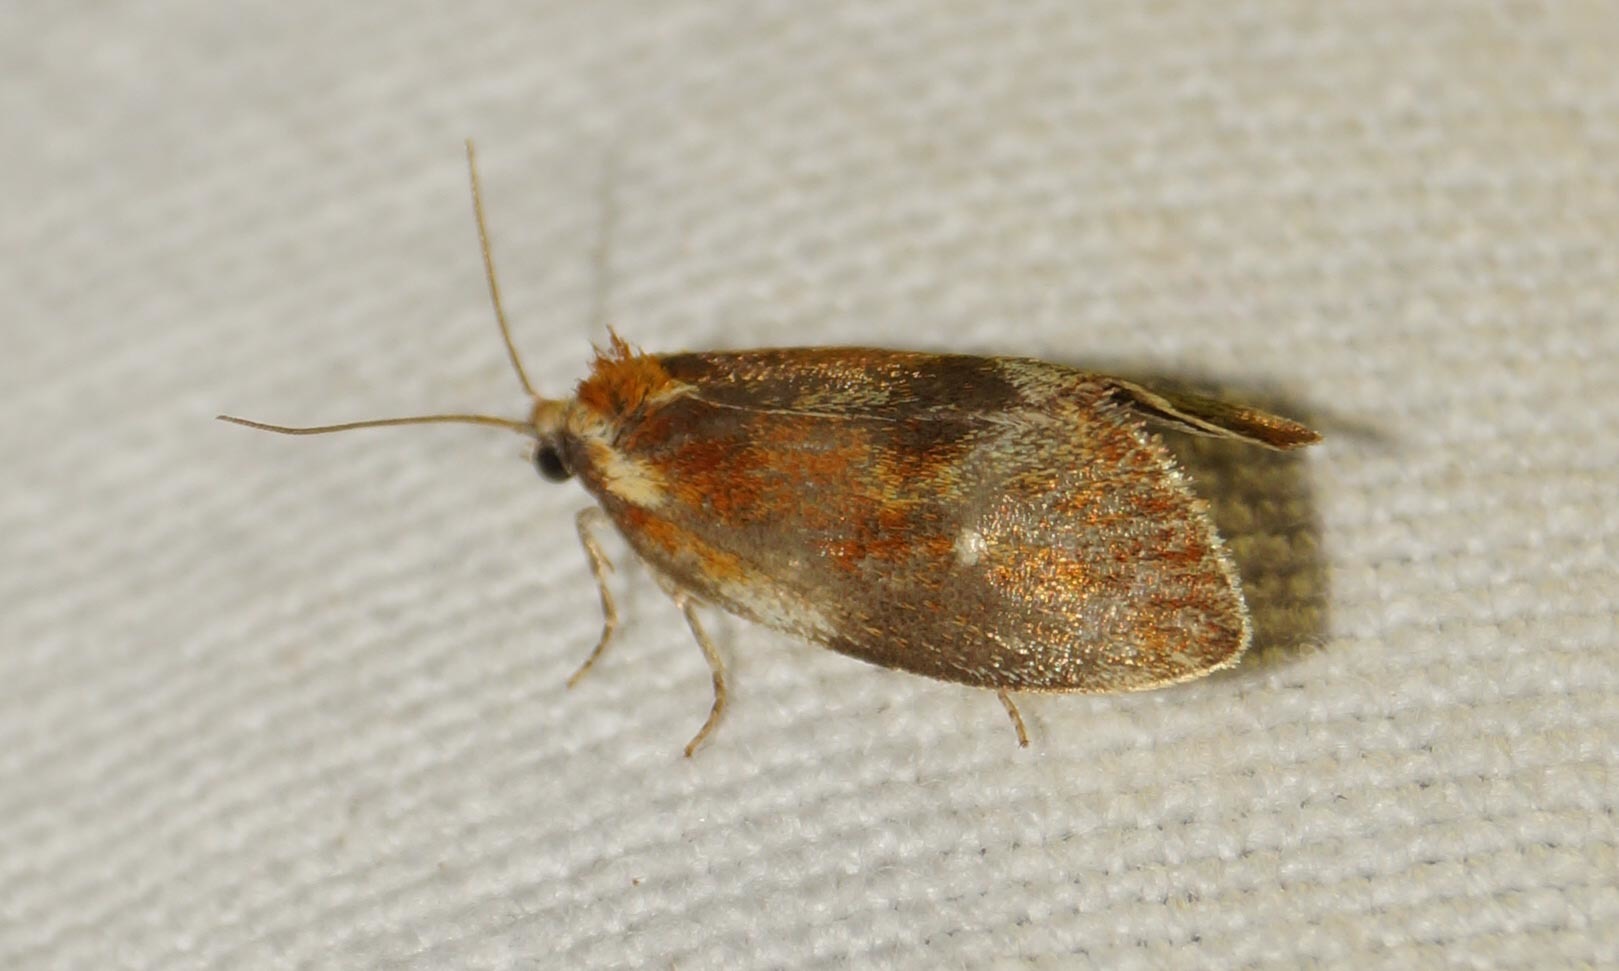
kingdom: Animalia
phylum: Arthropoda
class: Insecta
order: Lepidoptera
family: Tortricidae
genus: Eulia
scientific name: Eulia ministrana
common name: Brassy twist
